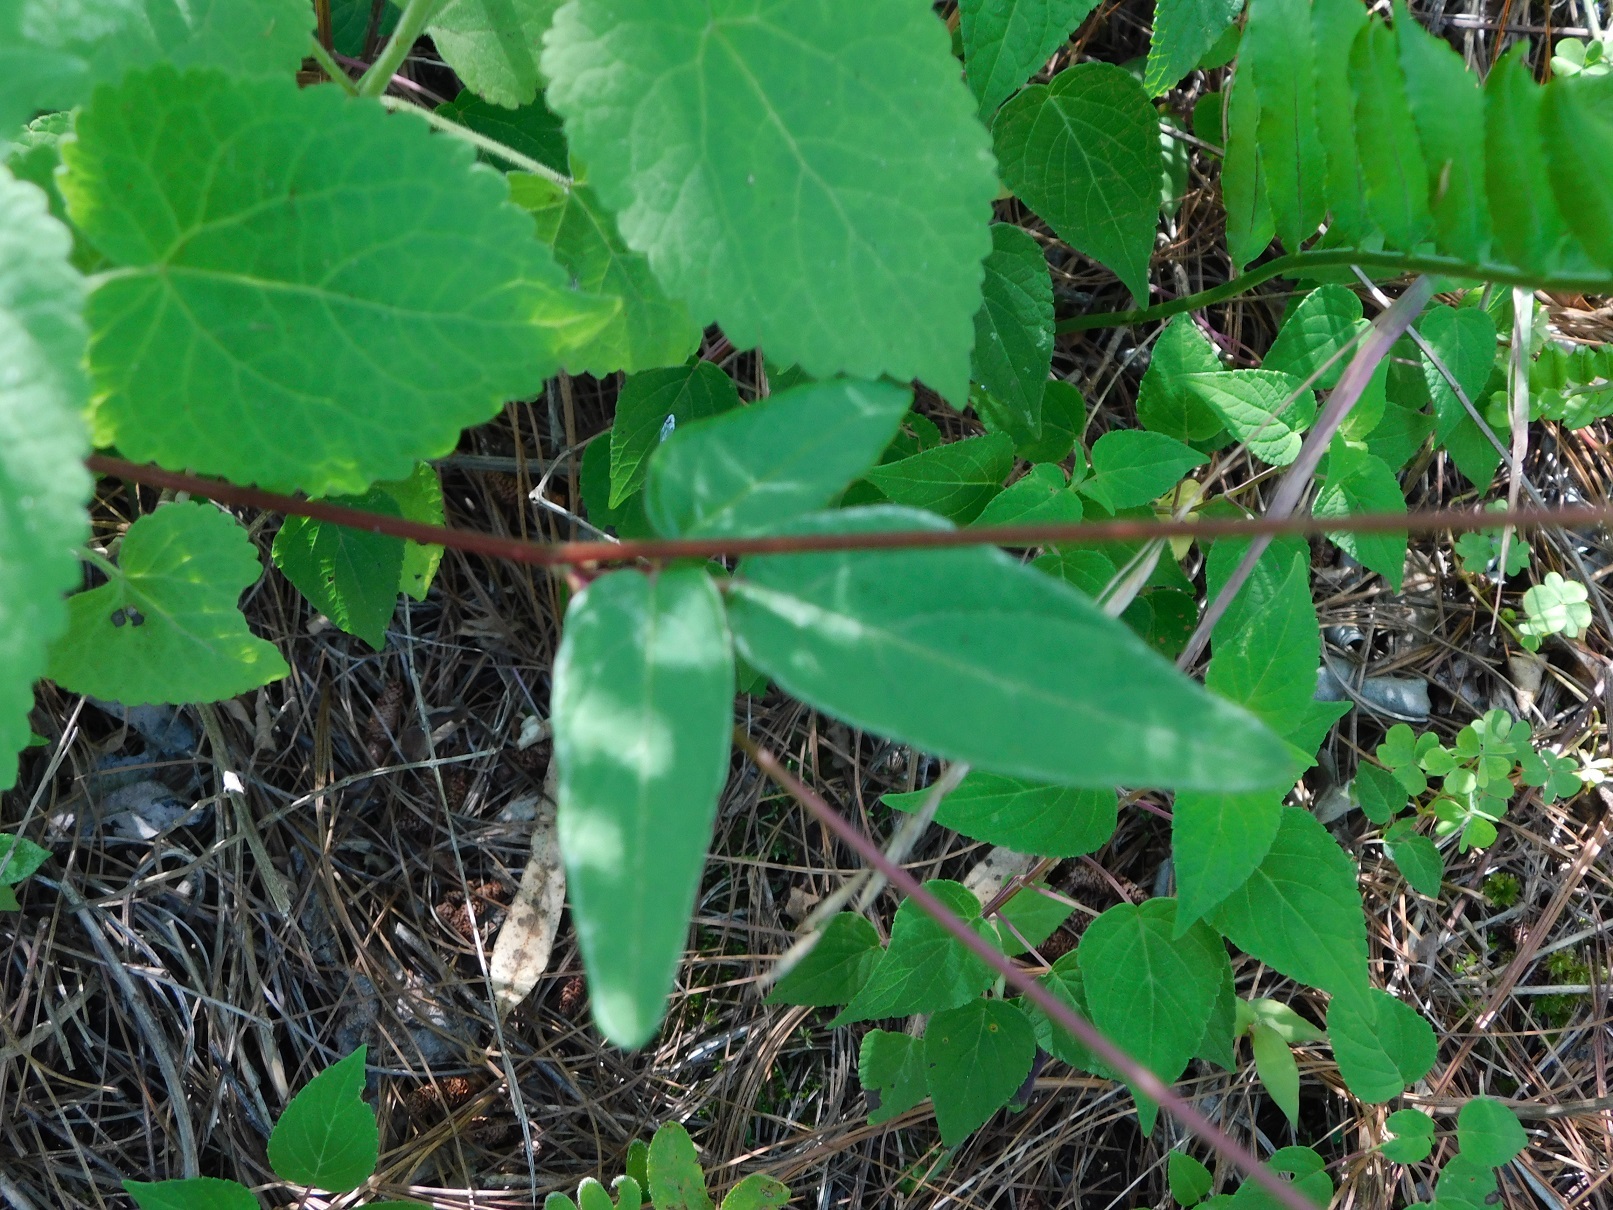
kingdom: Plantae
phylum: Tracheophyta
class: Magnoliopsida
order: Fabales
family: Fabaceae
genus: Desmodium
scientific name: Desmodium palmeri
